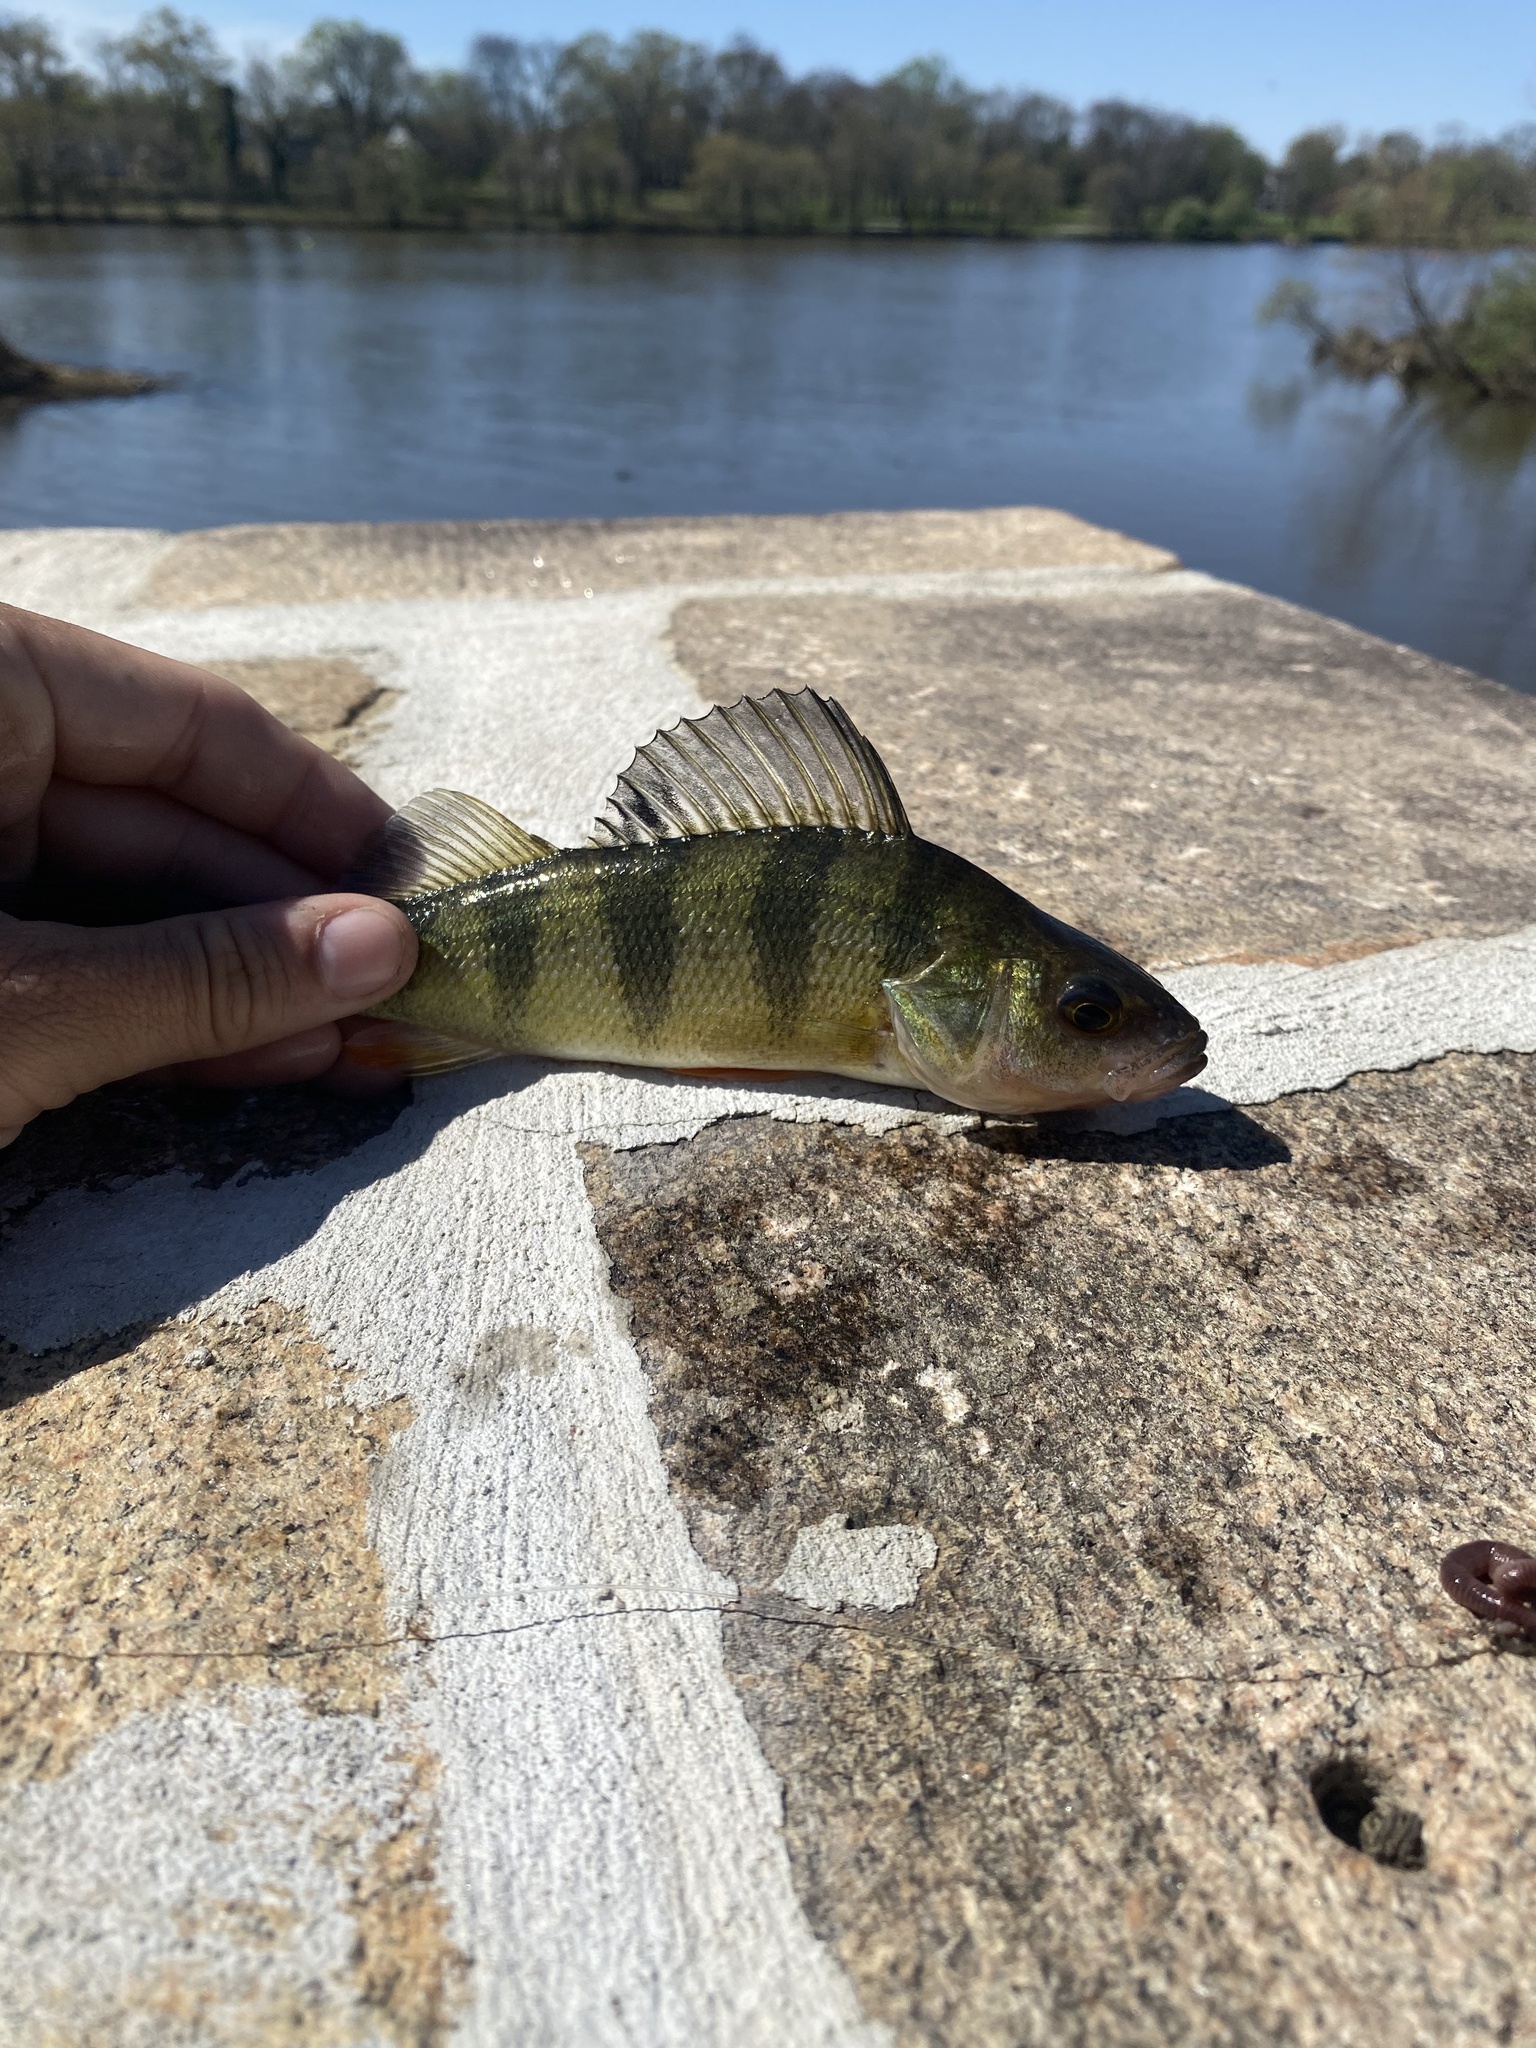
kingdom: Animalia
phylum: Chordata
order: Perciformes
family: Percidae
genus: Perca
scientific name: Perca flavescens
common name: Yellow perch
